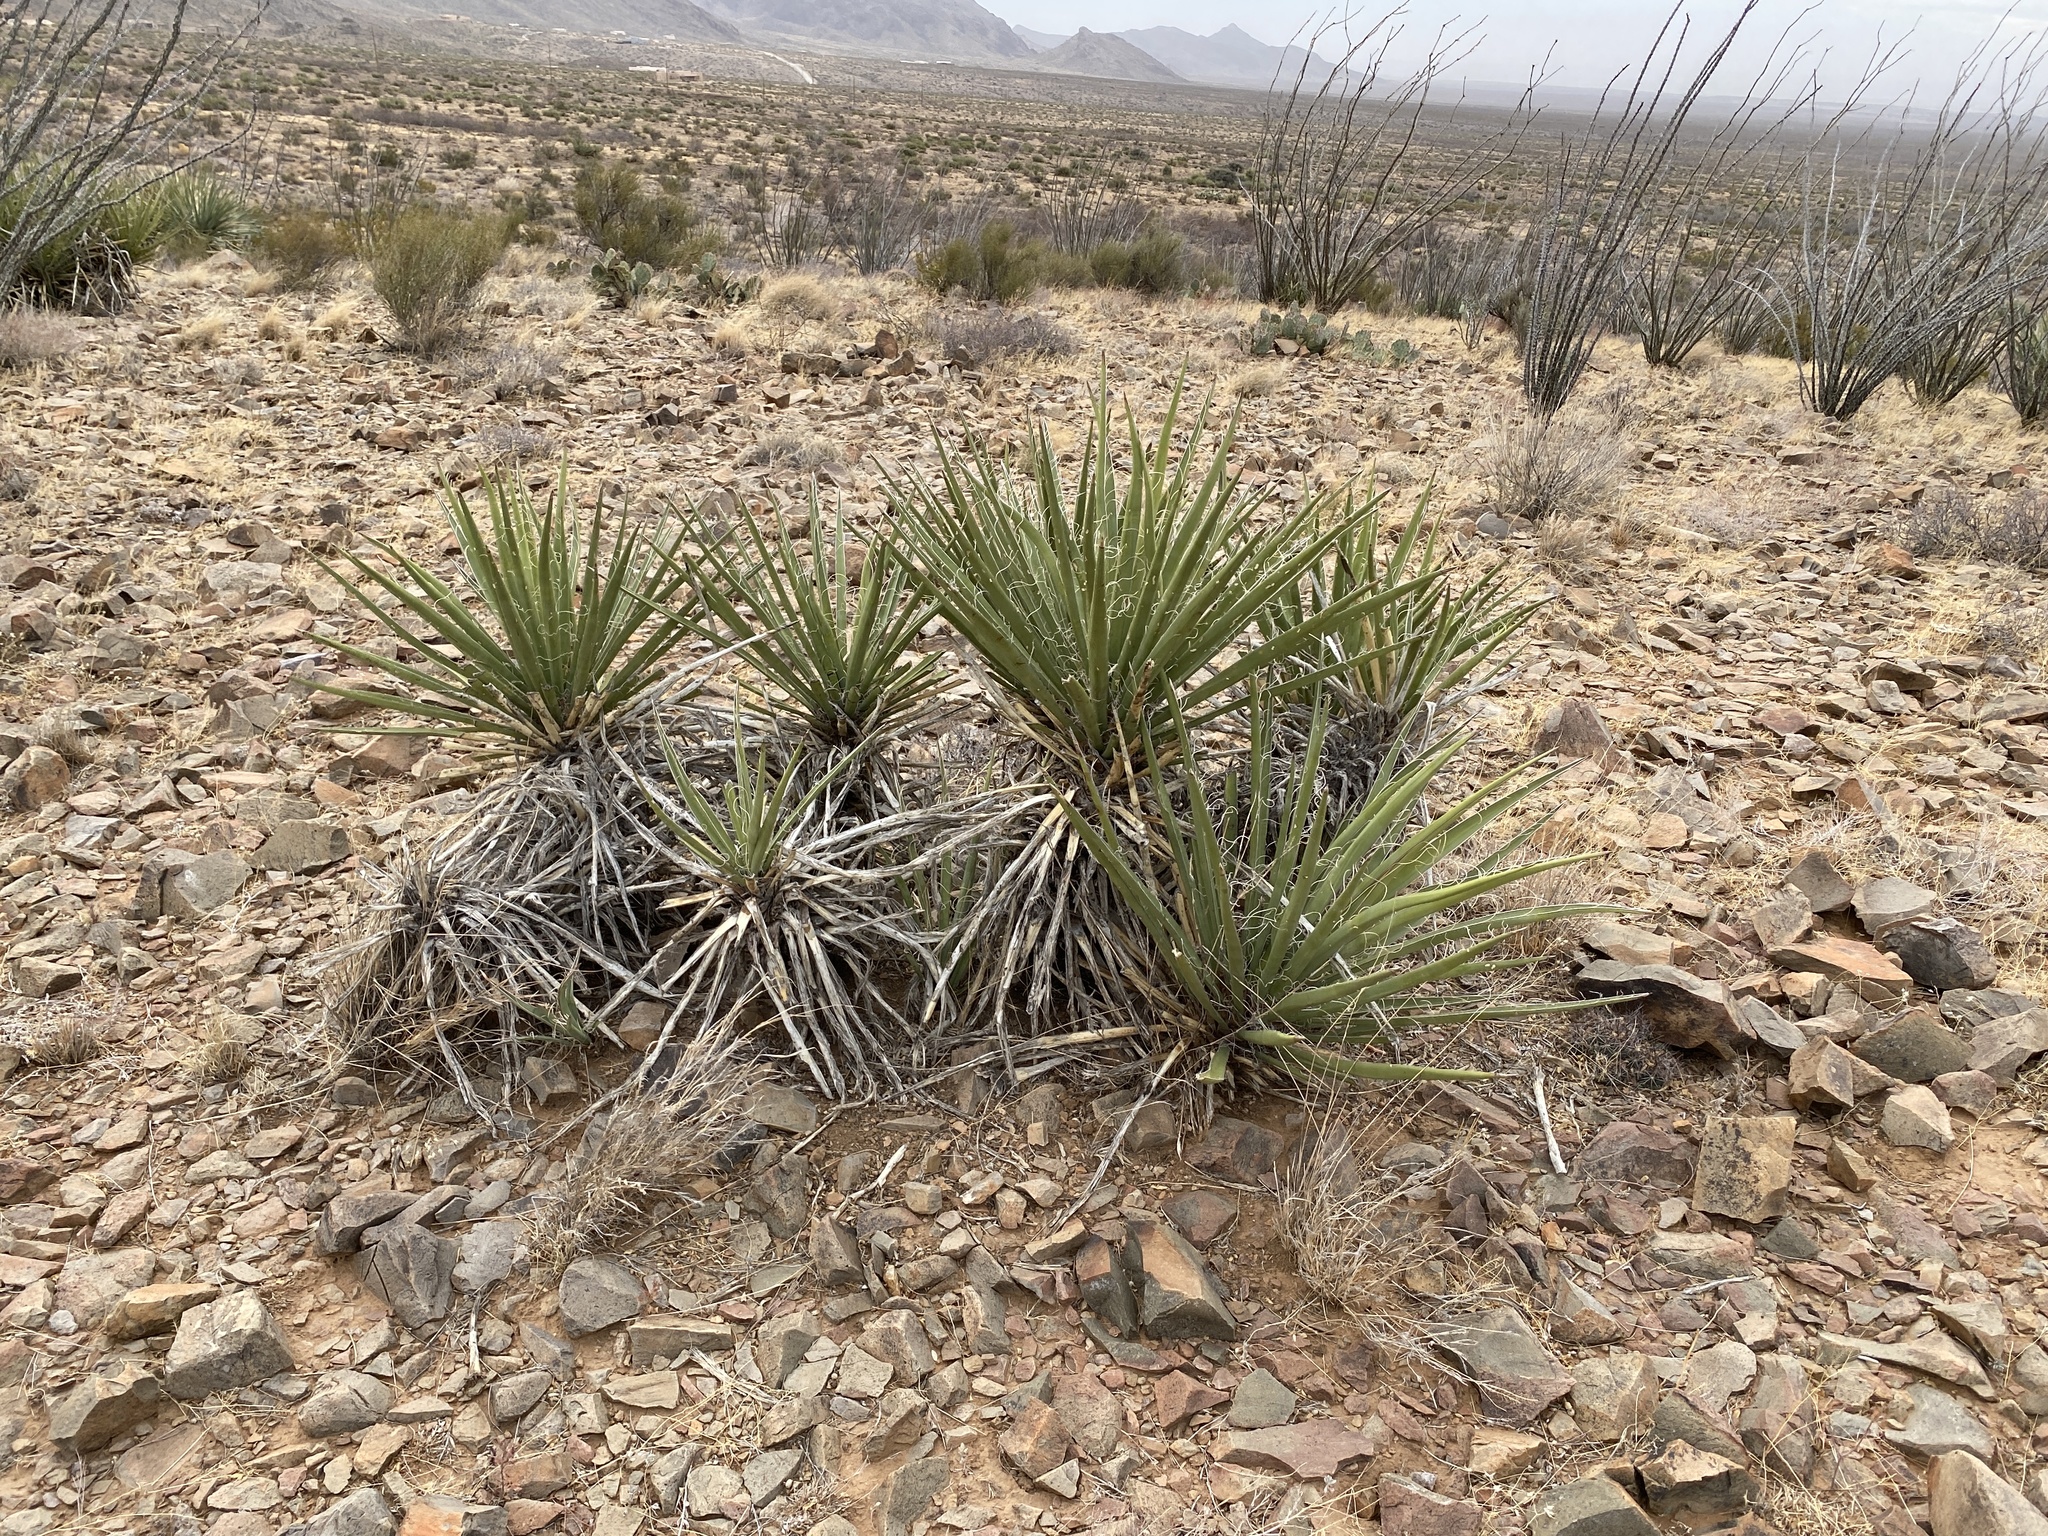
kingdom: Plantae
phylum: Tracheophyta
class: Liliopsida
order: Asparagales
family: Asparagaceae
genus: Yucca
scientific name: Yucca baccata
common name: Banana yucca
